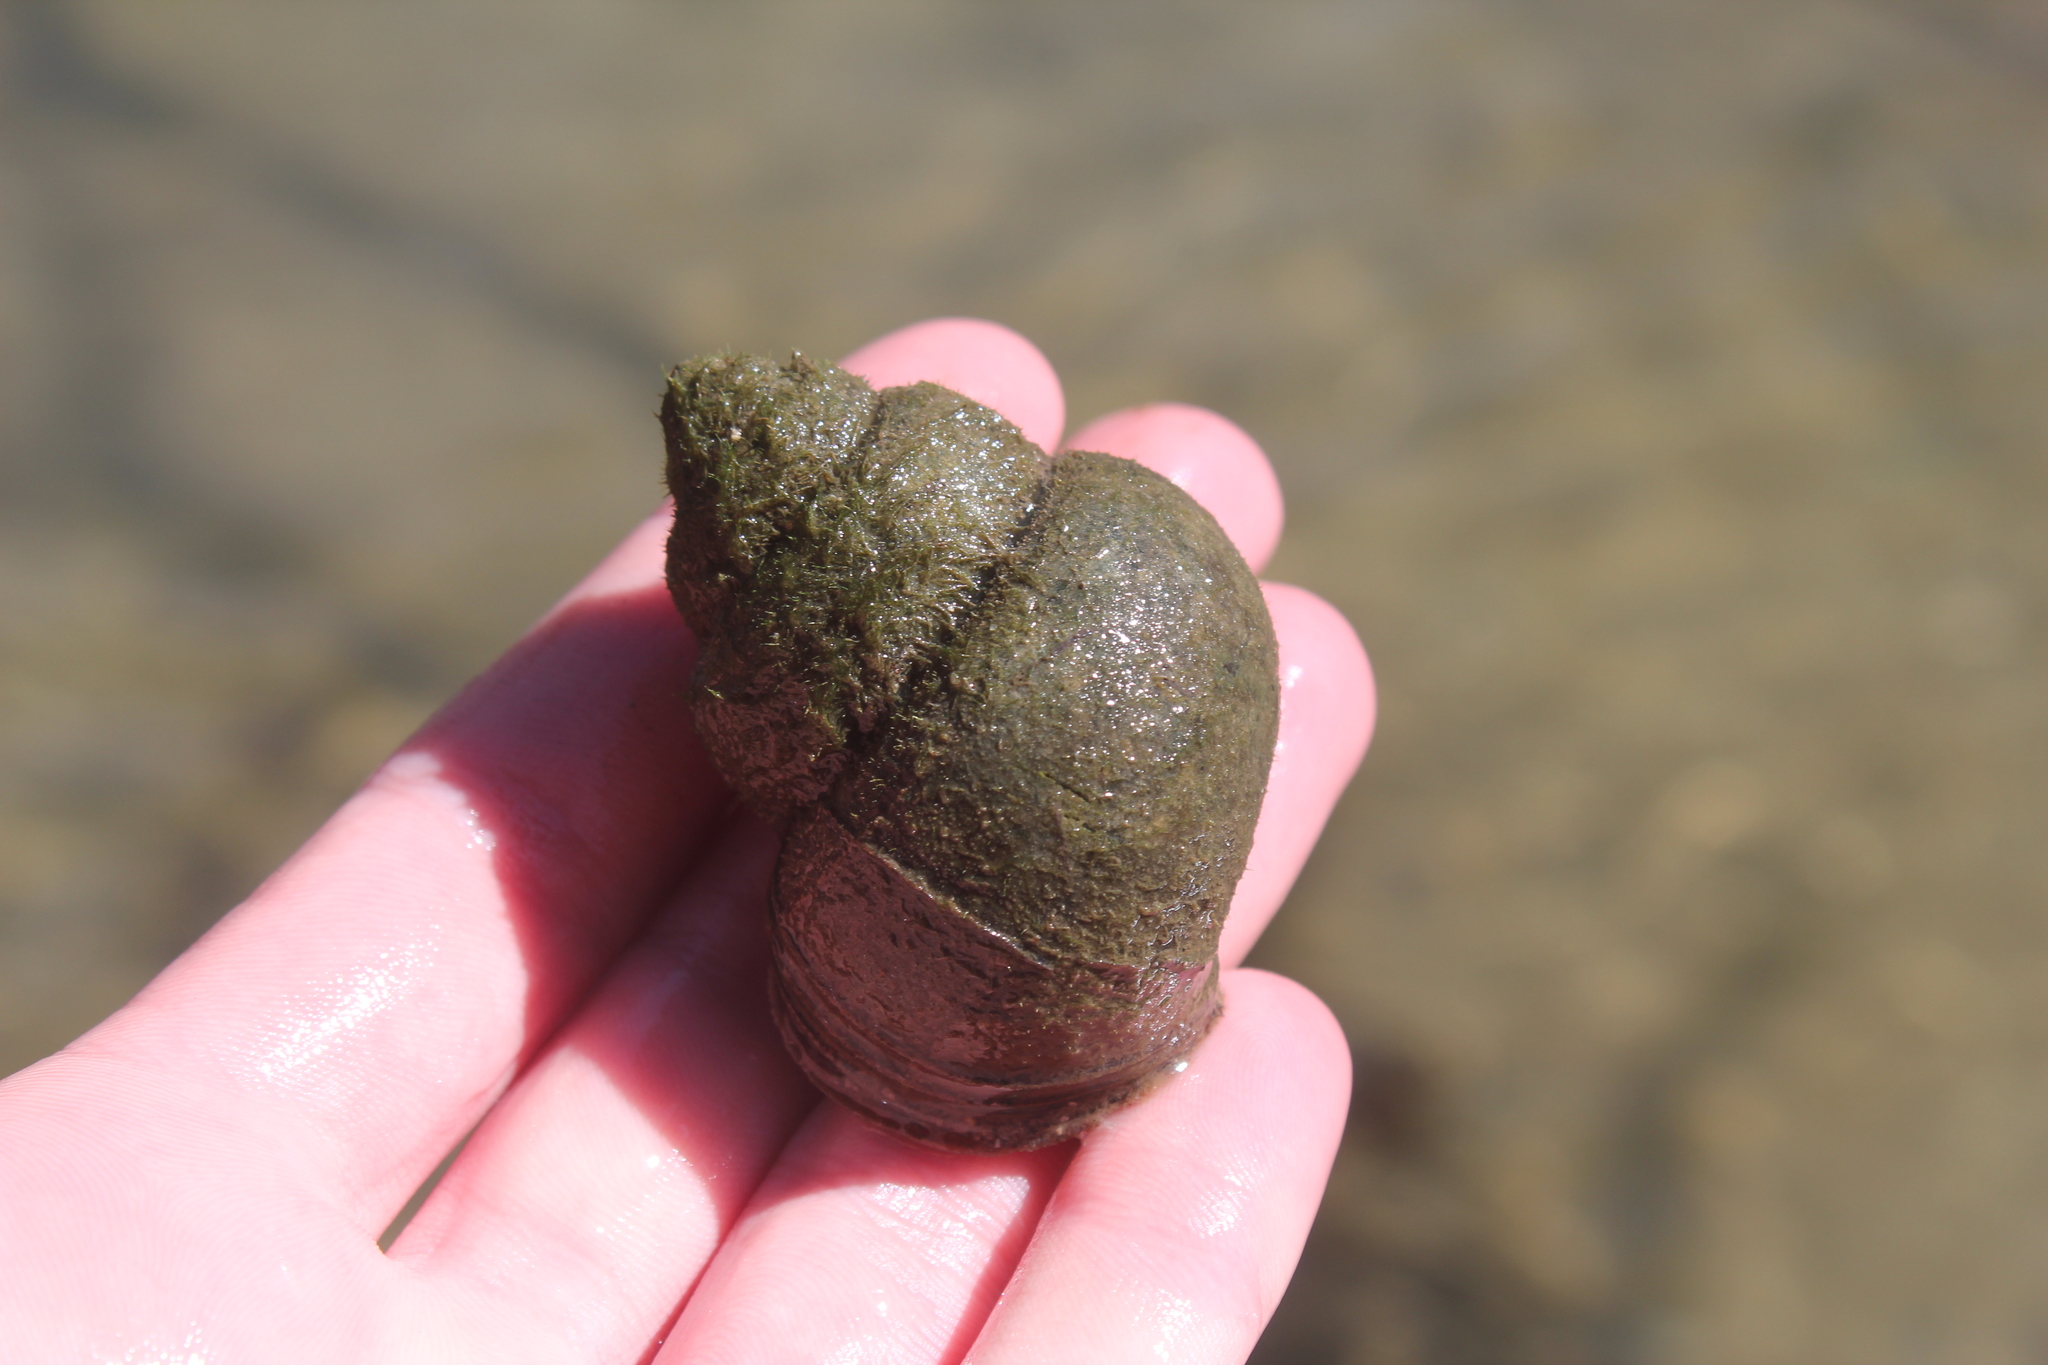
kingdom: Animalia
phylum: Mollusca
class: Gastropoda
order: Architaenioglossa
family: Viviparidae
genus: Cipangopaludina
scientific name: Cipangopaludina chinensis
